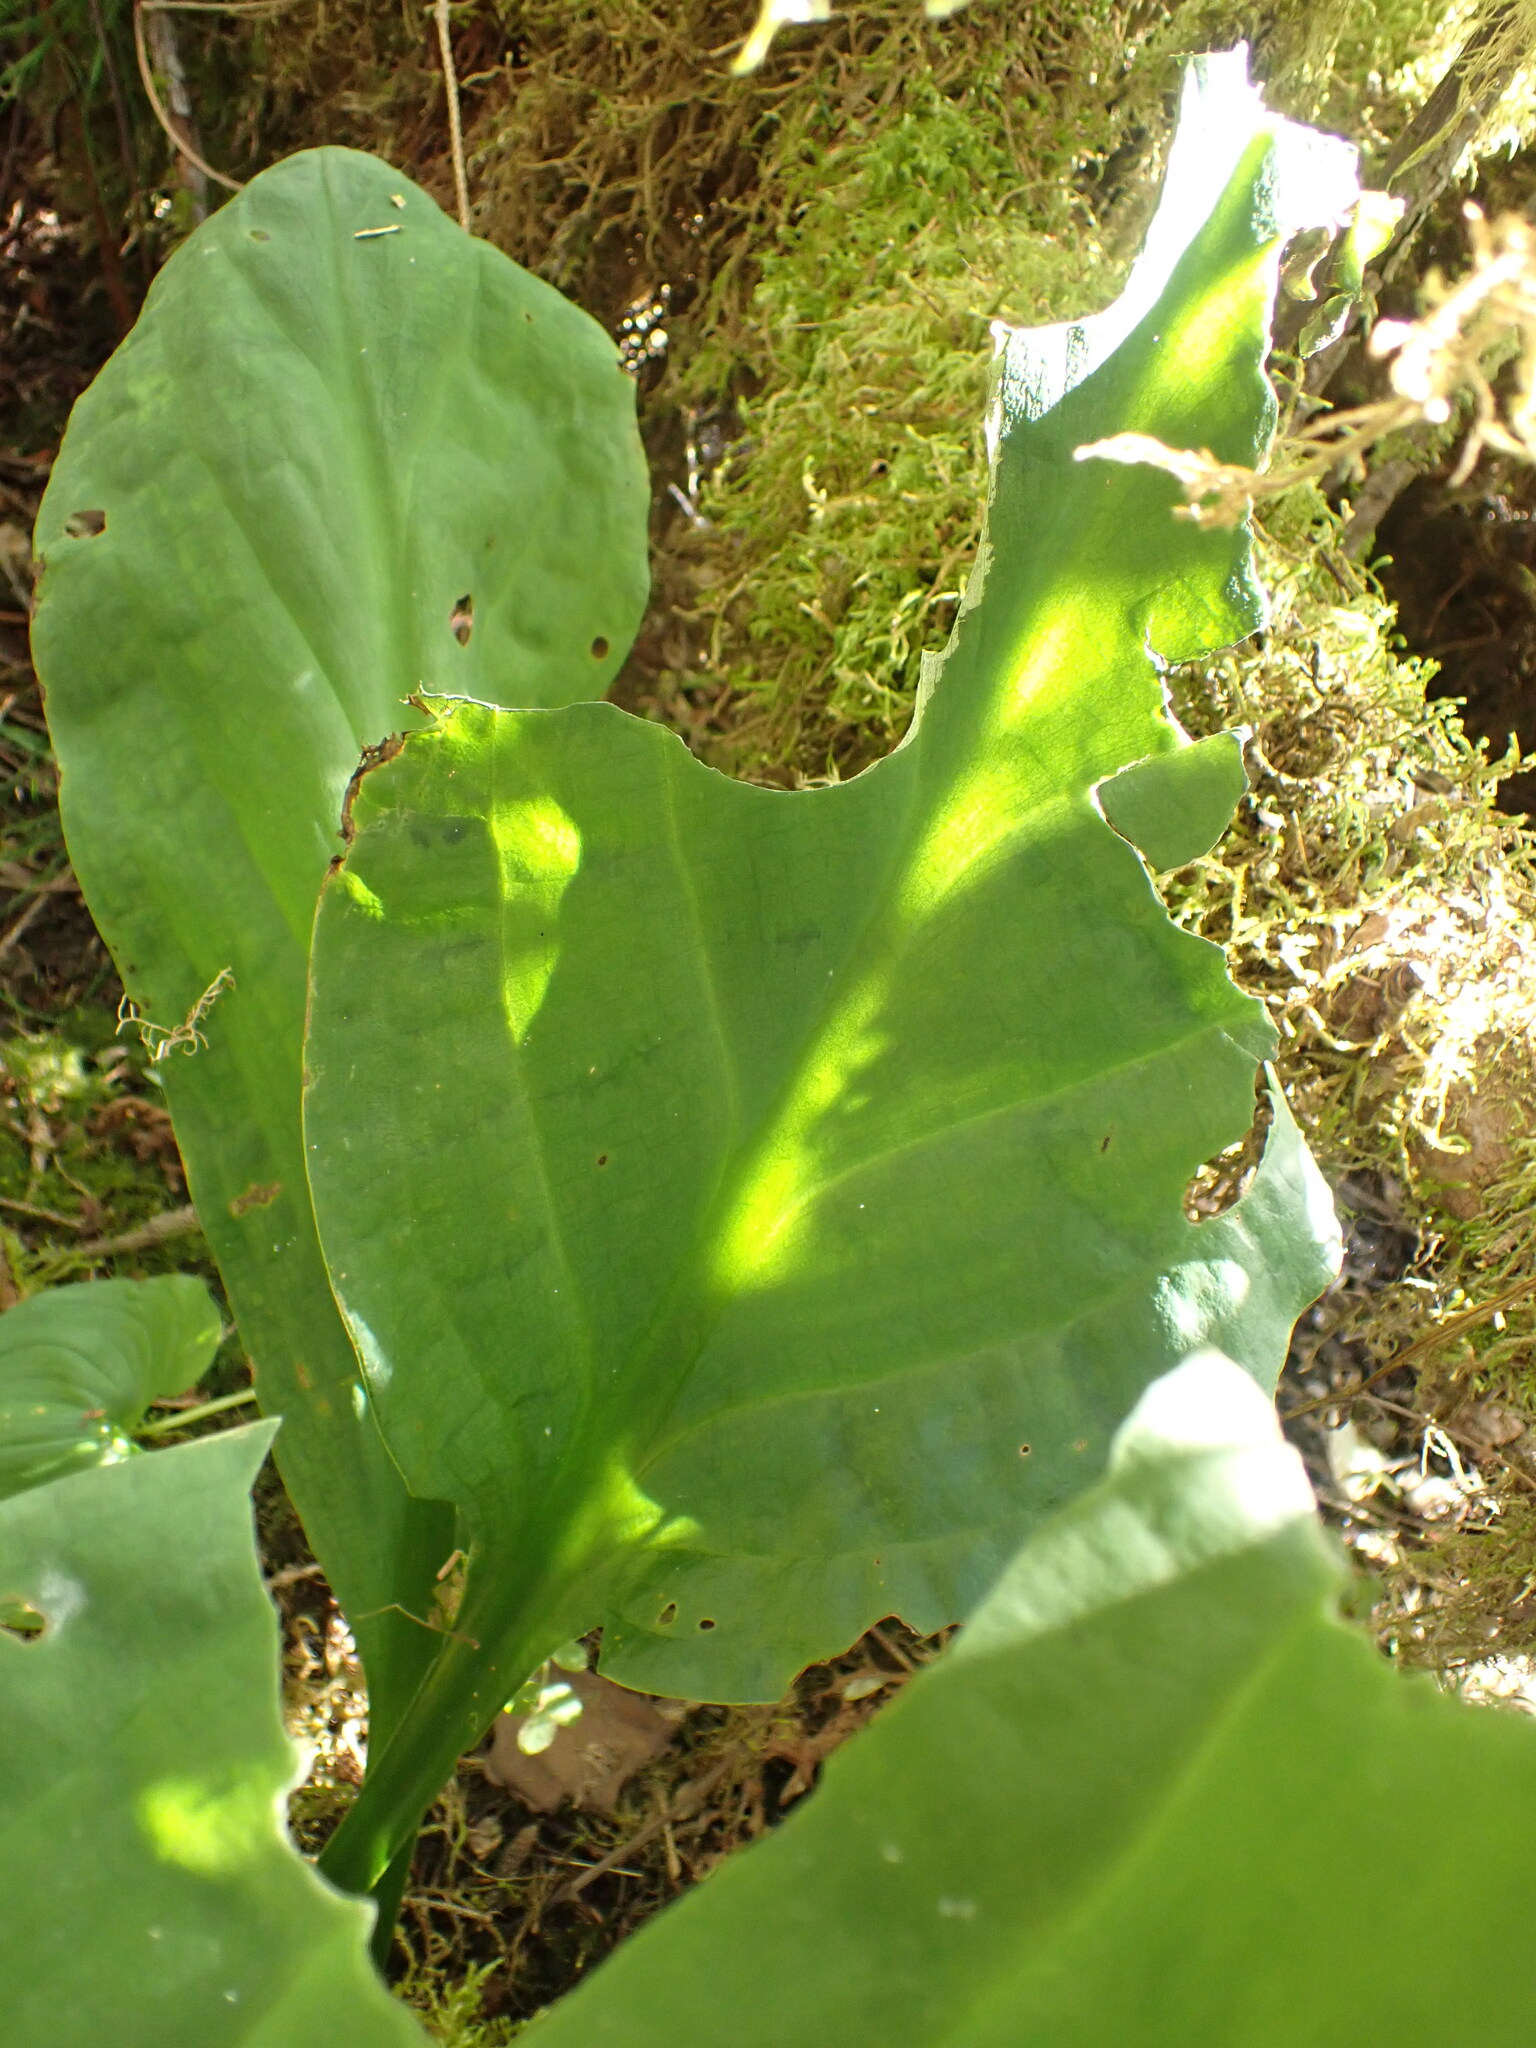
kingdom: Plantae
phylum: Tracheophyta
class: Liliopsida
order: Alismatales
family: Araceae
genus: Lysichiton
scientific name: Lysichiton americanus
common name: American skunk cabbage
